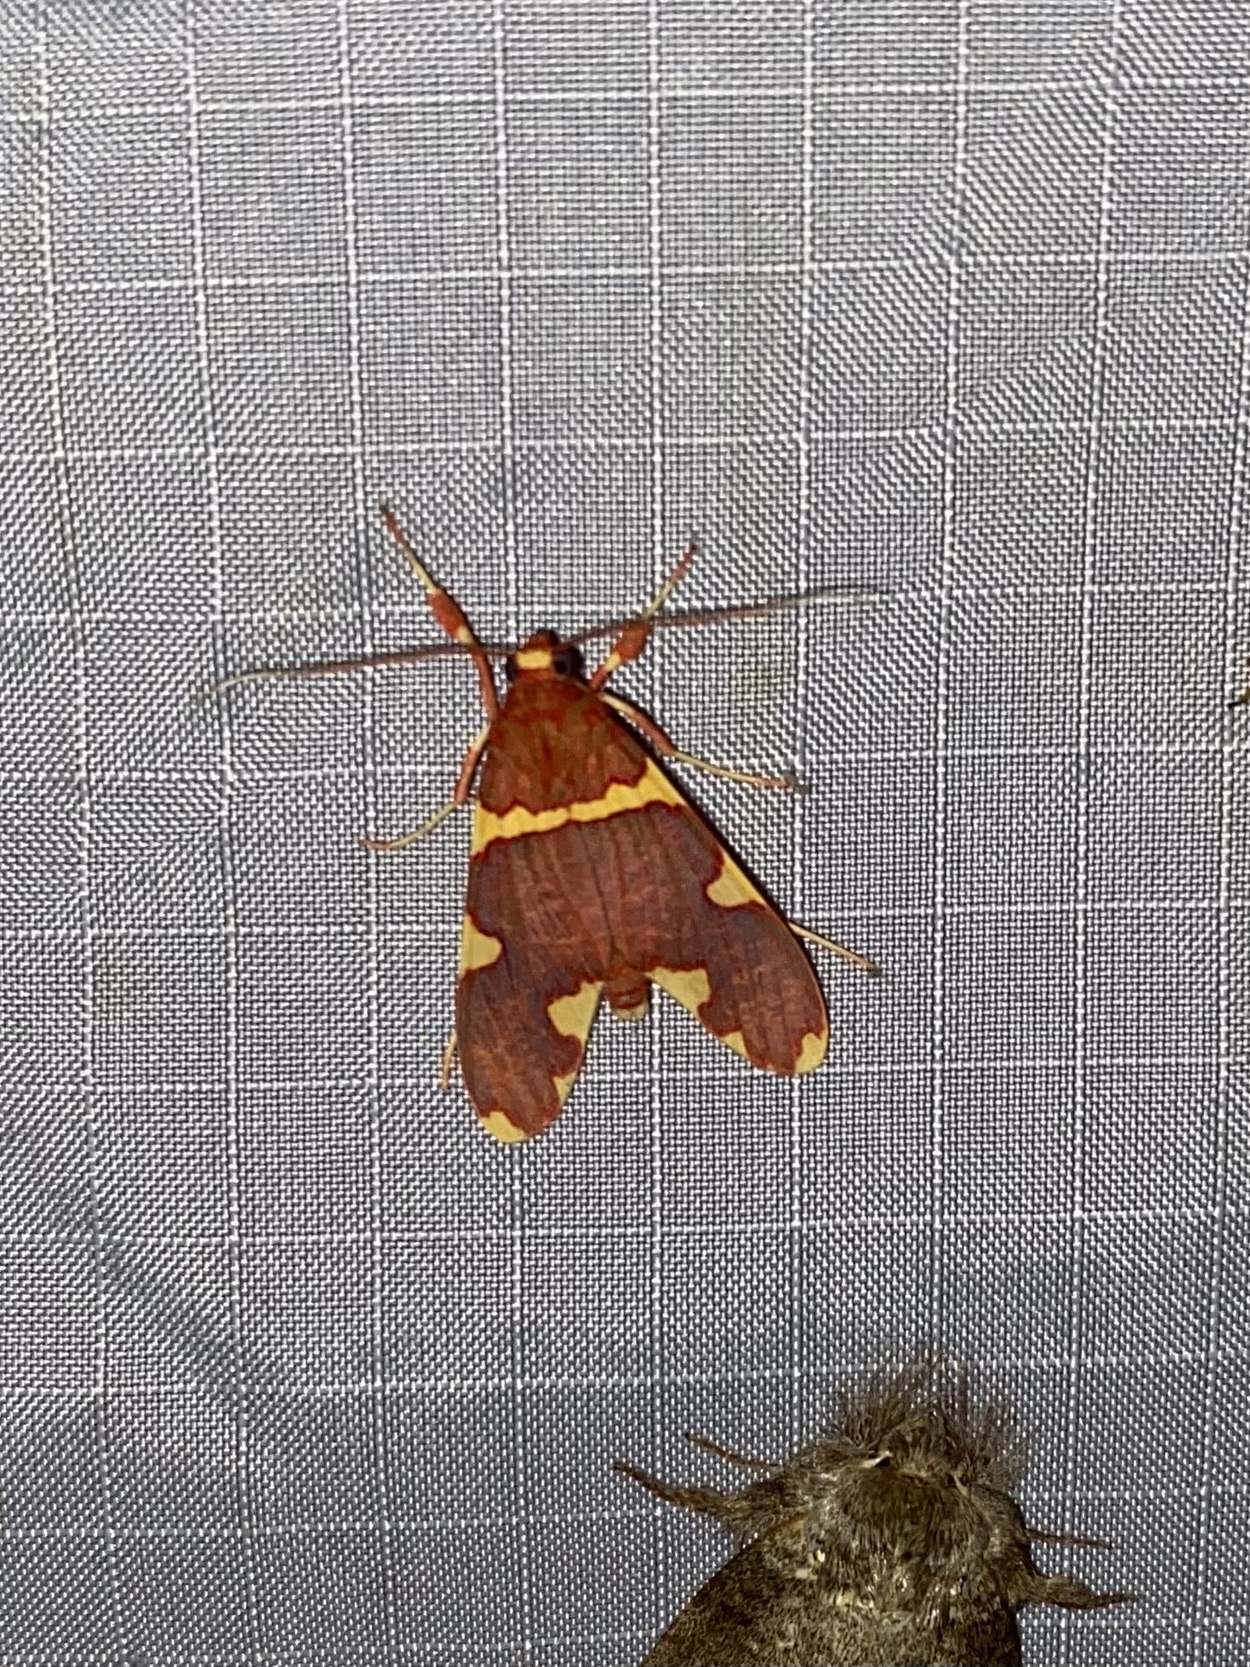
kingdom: Animalia
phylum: Arthropoda
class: Insecta
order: Lepidoptera
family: Erebidae
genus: Neritos
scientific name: Neritos cardinalis
